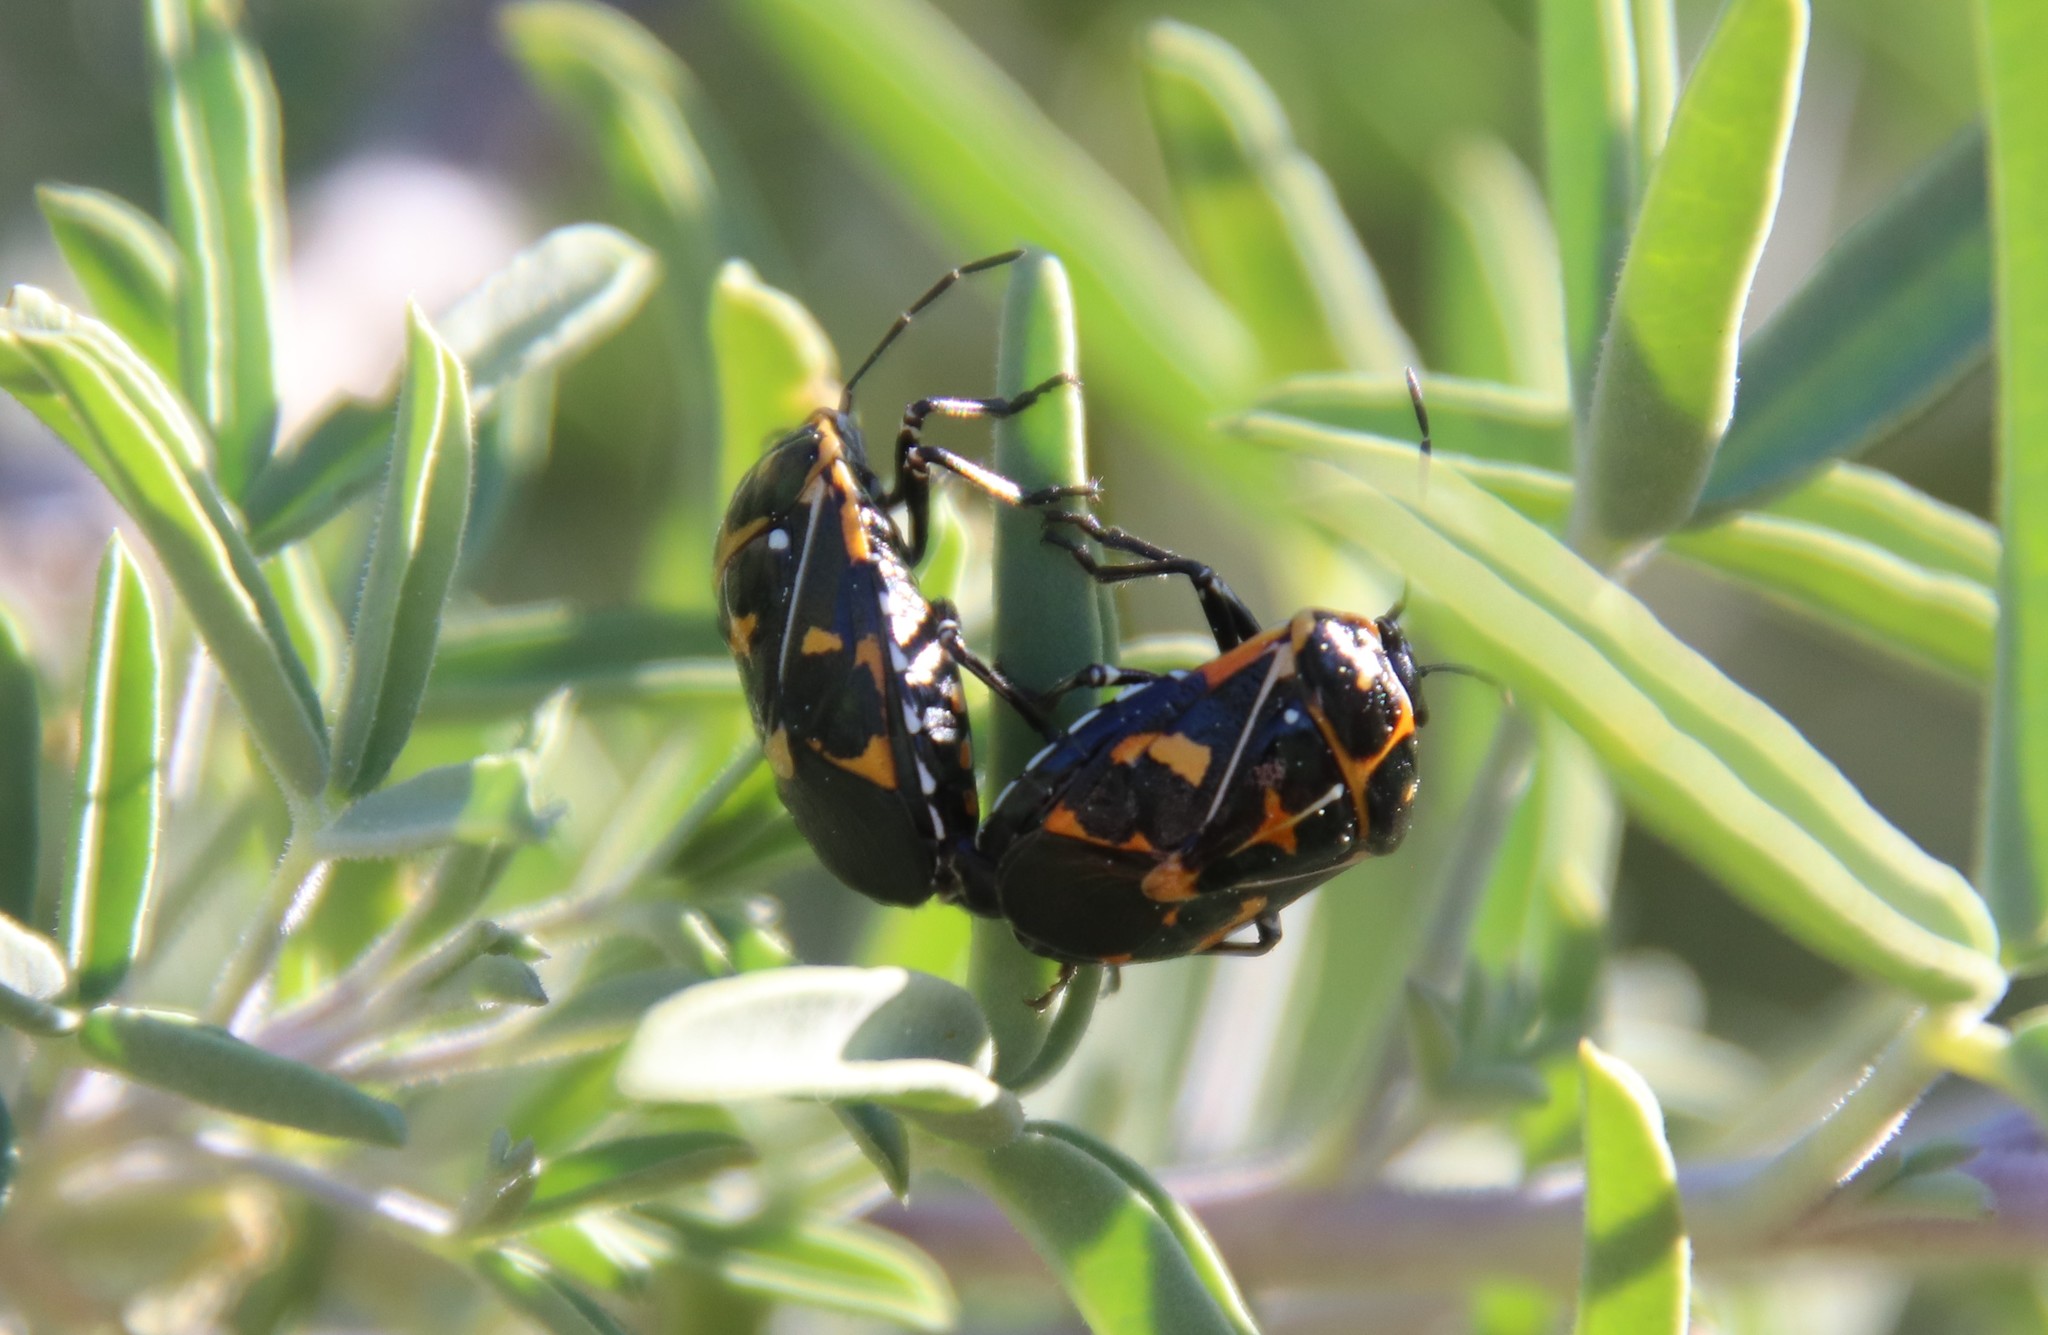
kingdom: Animalia
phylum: Arthropoda
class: Insecta
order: Hemiptera
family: Pentatomidae
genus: Murgantia
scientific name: Murgantia histrionica
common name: Harlequin bug
